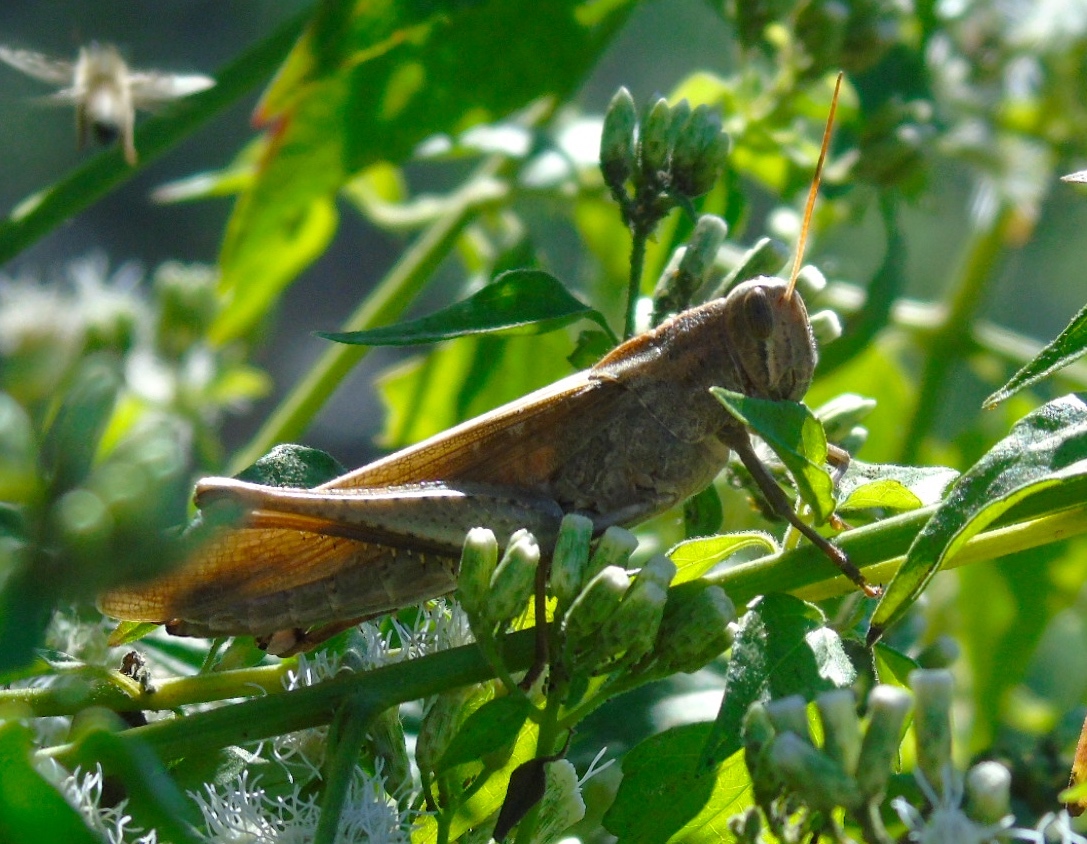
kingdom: Animalia
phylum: Arthropoda
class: Insecta
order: Orthoptera
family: Acrididae
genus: Schistocerca
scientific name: Schistocerca
